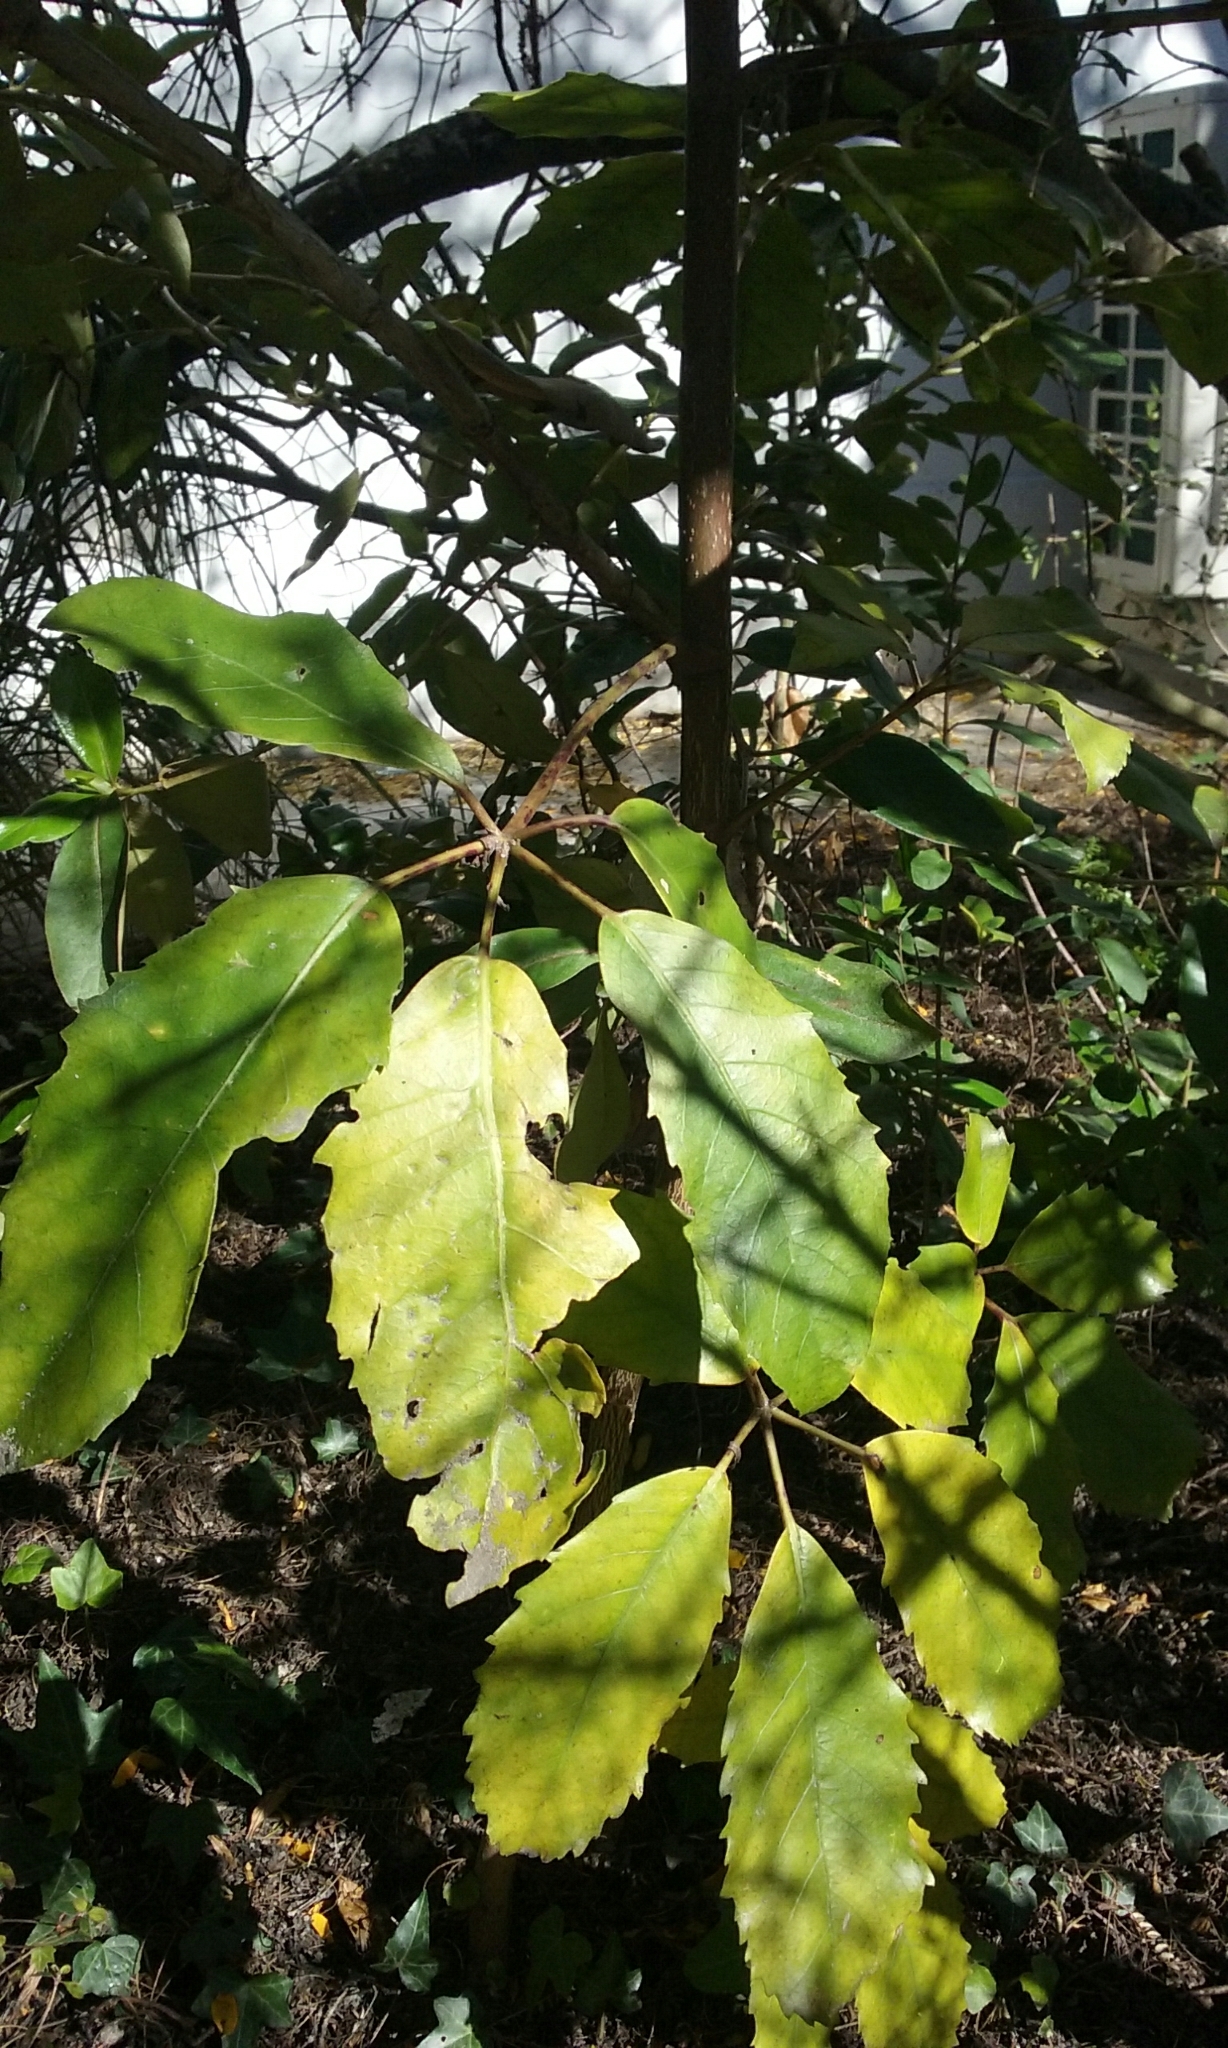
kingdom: Plantae
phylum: Tracheophyta
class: Magnoliopsida
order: Apiales
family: Araliaceae
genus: Neopanax
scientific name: Neopanax arboreus
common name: Five-fingers
